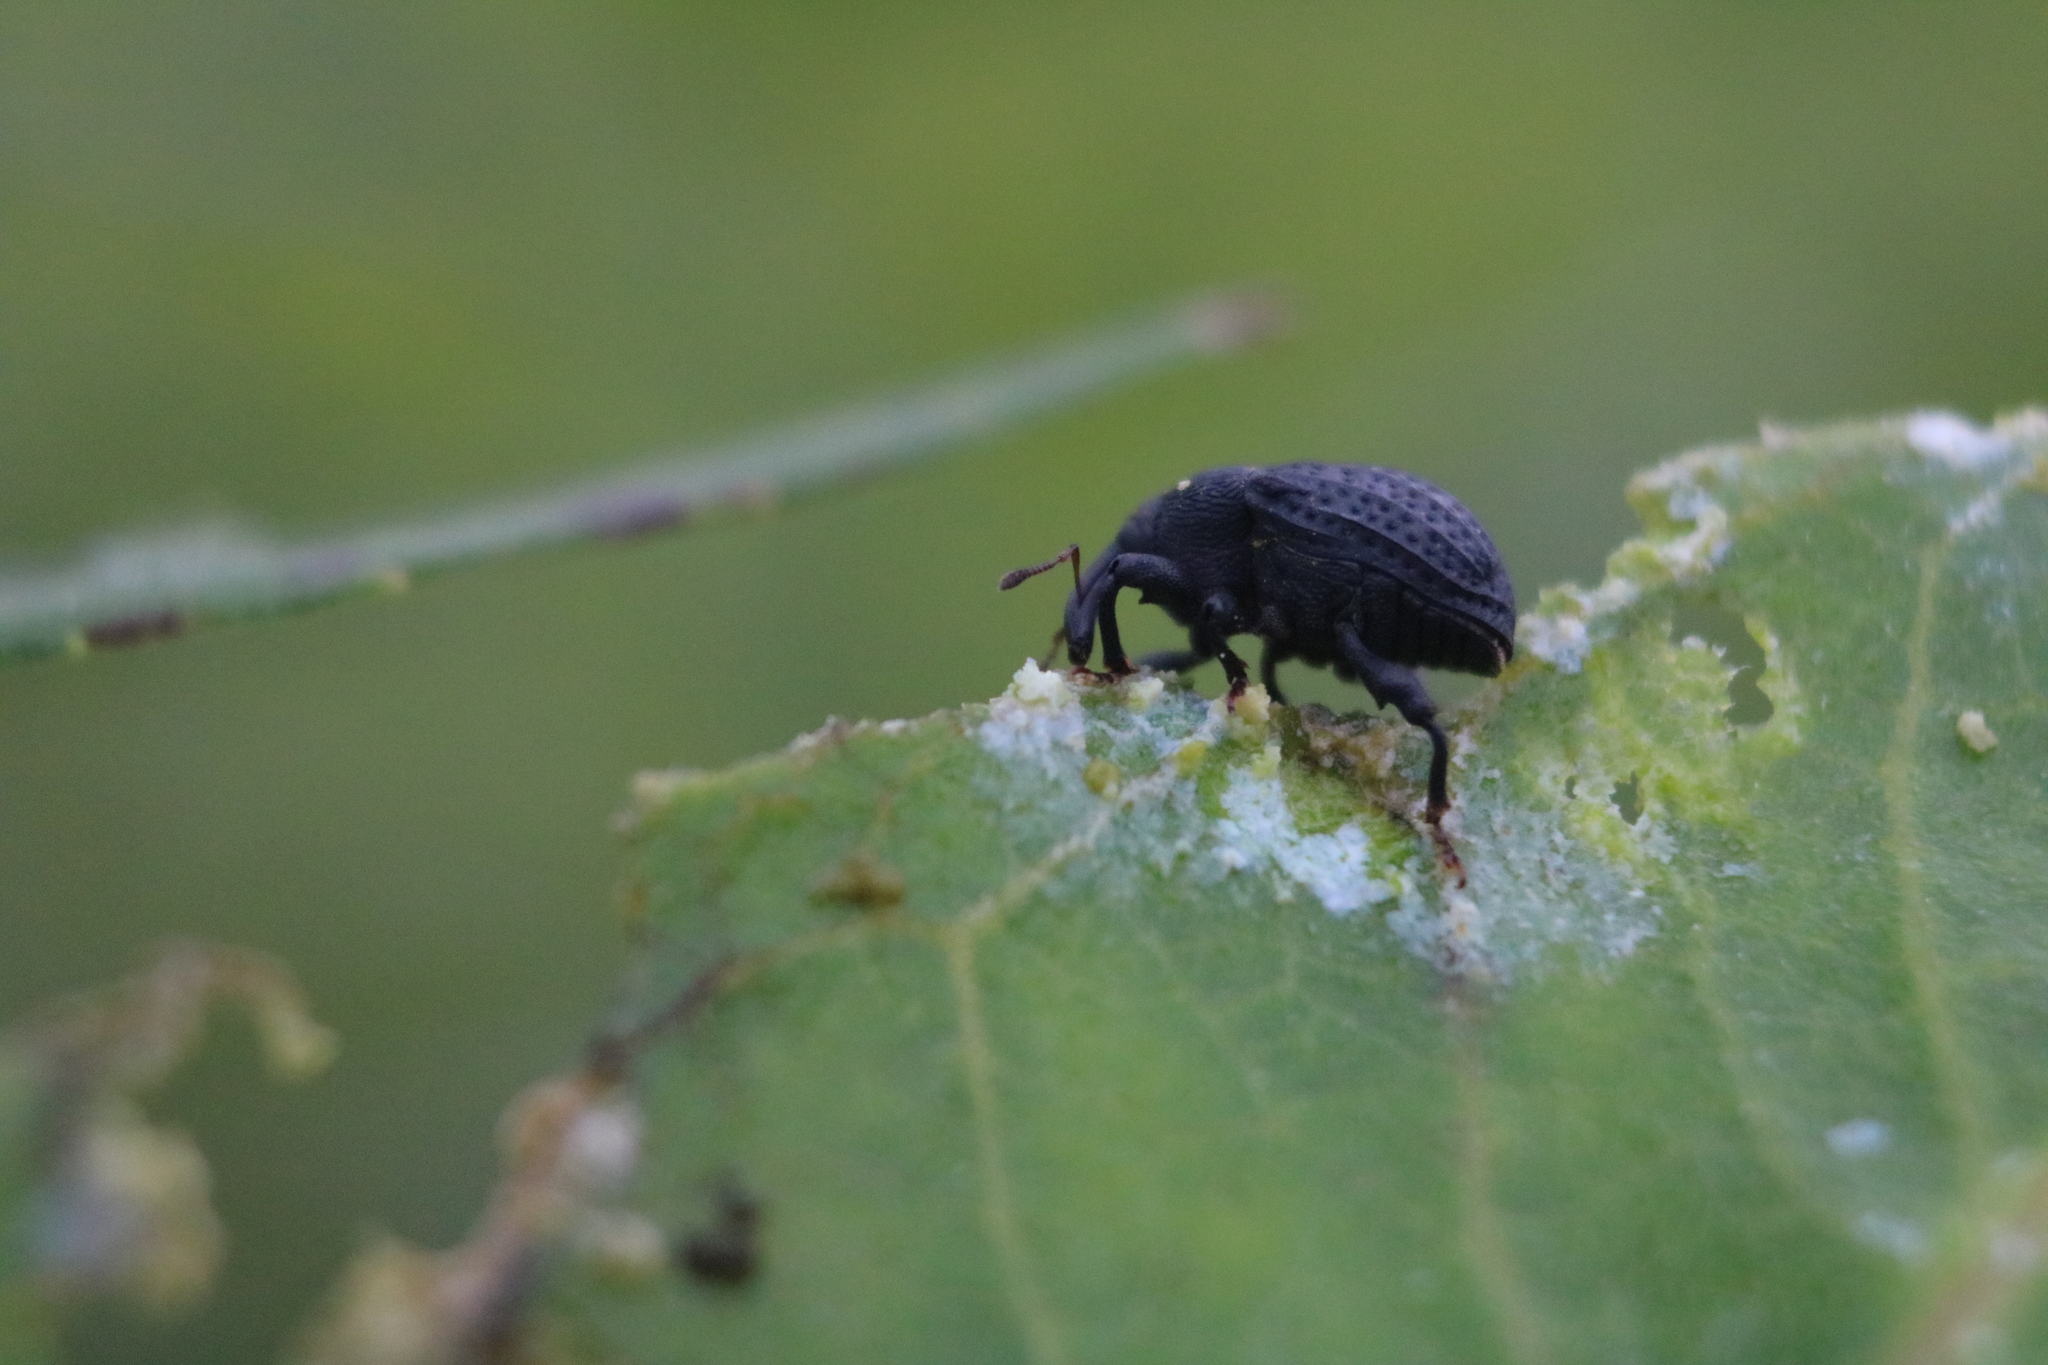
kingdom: Animalia
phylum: Arthropoda
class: Insecta
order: Coleoptera
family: Curculionidae
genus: Rhyssomatus
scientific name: Rhyssomatus lineaticollis
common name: Milkweed stem weevil
